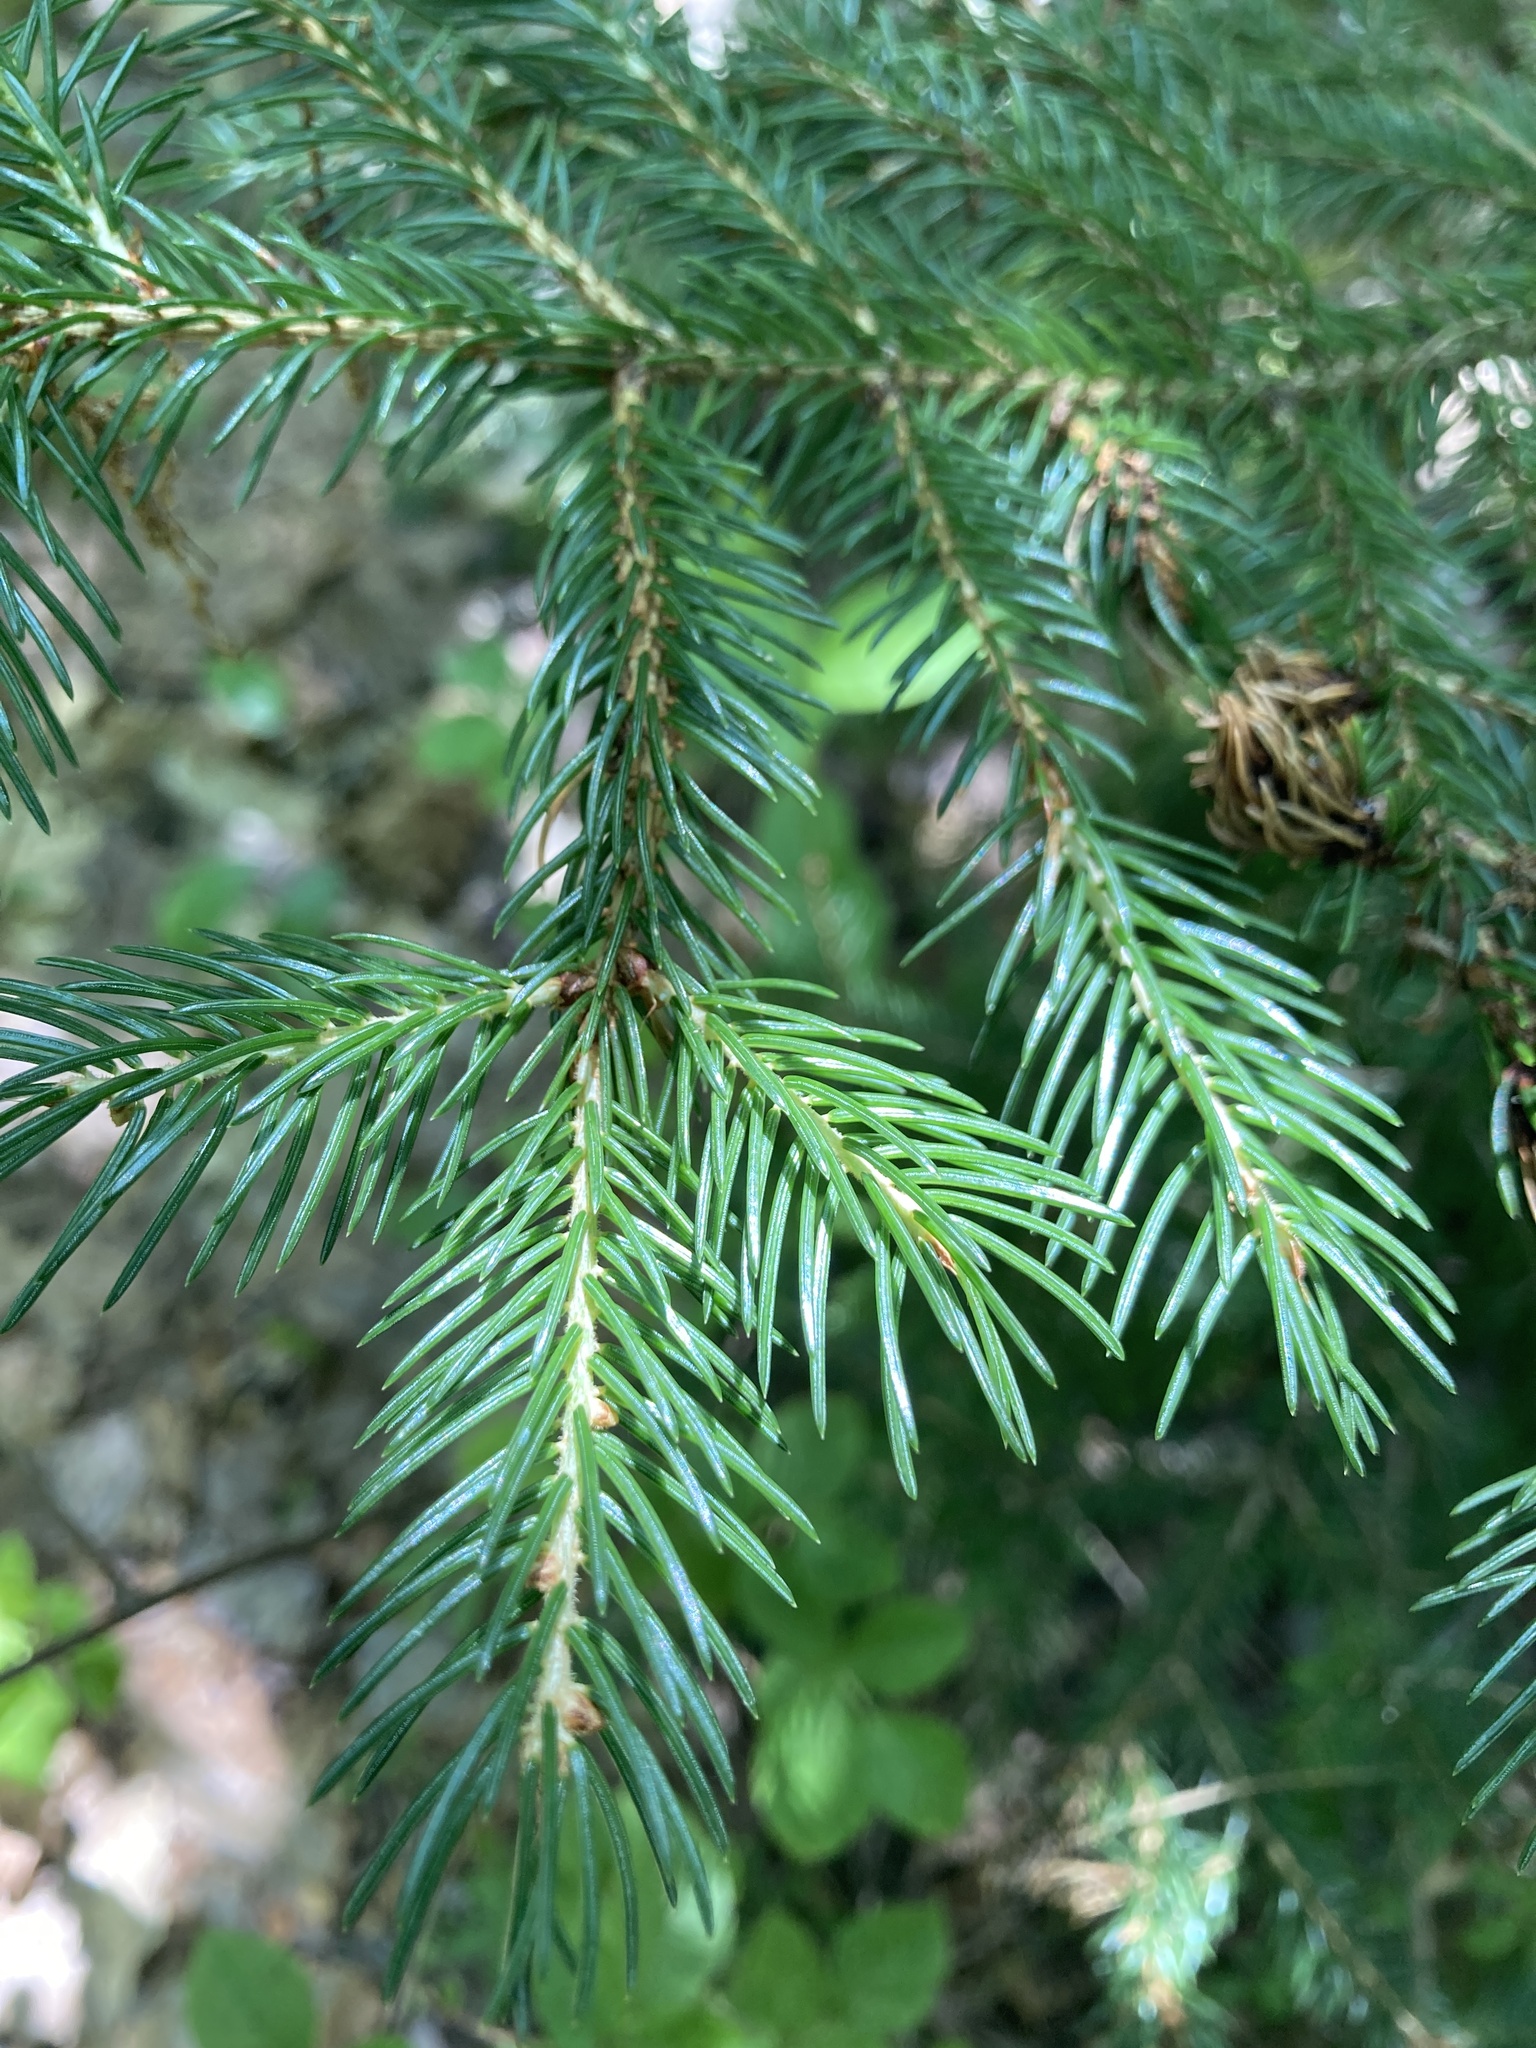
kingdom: Plantae
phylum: Tracheophyta
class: Pinopsida
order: Pinales
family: Pinaceae
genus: Picea
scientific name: Picea rubens
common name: Red spruce
